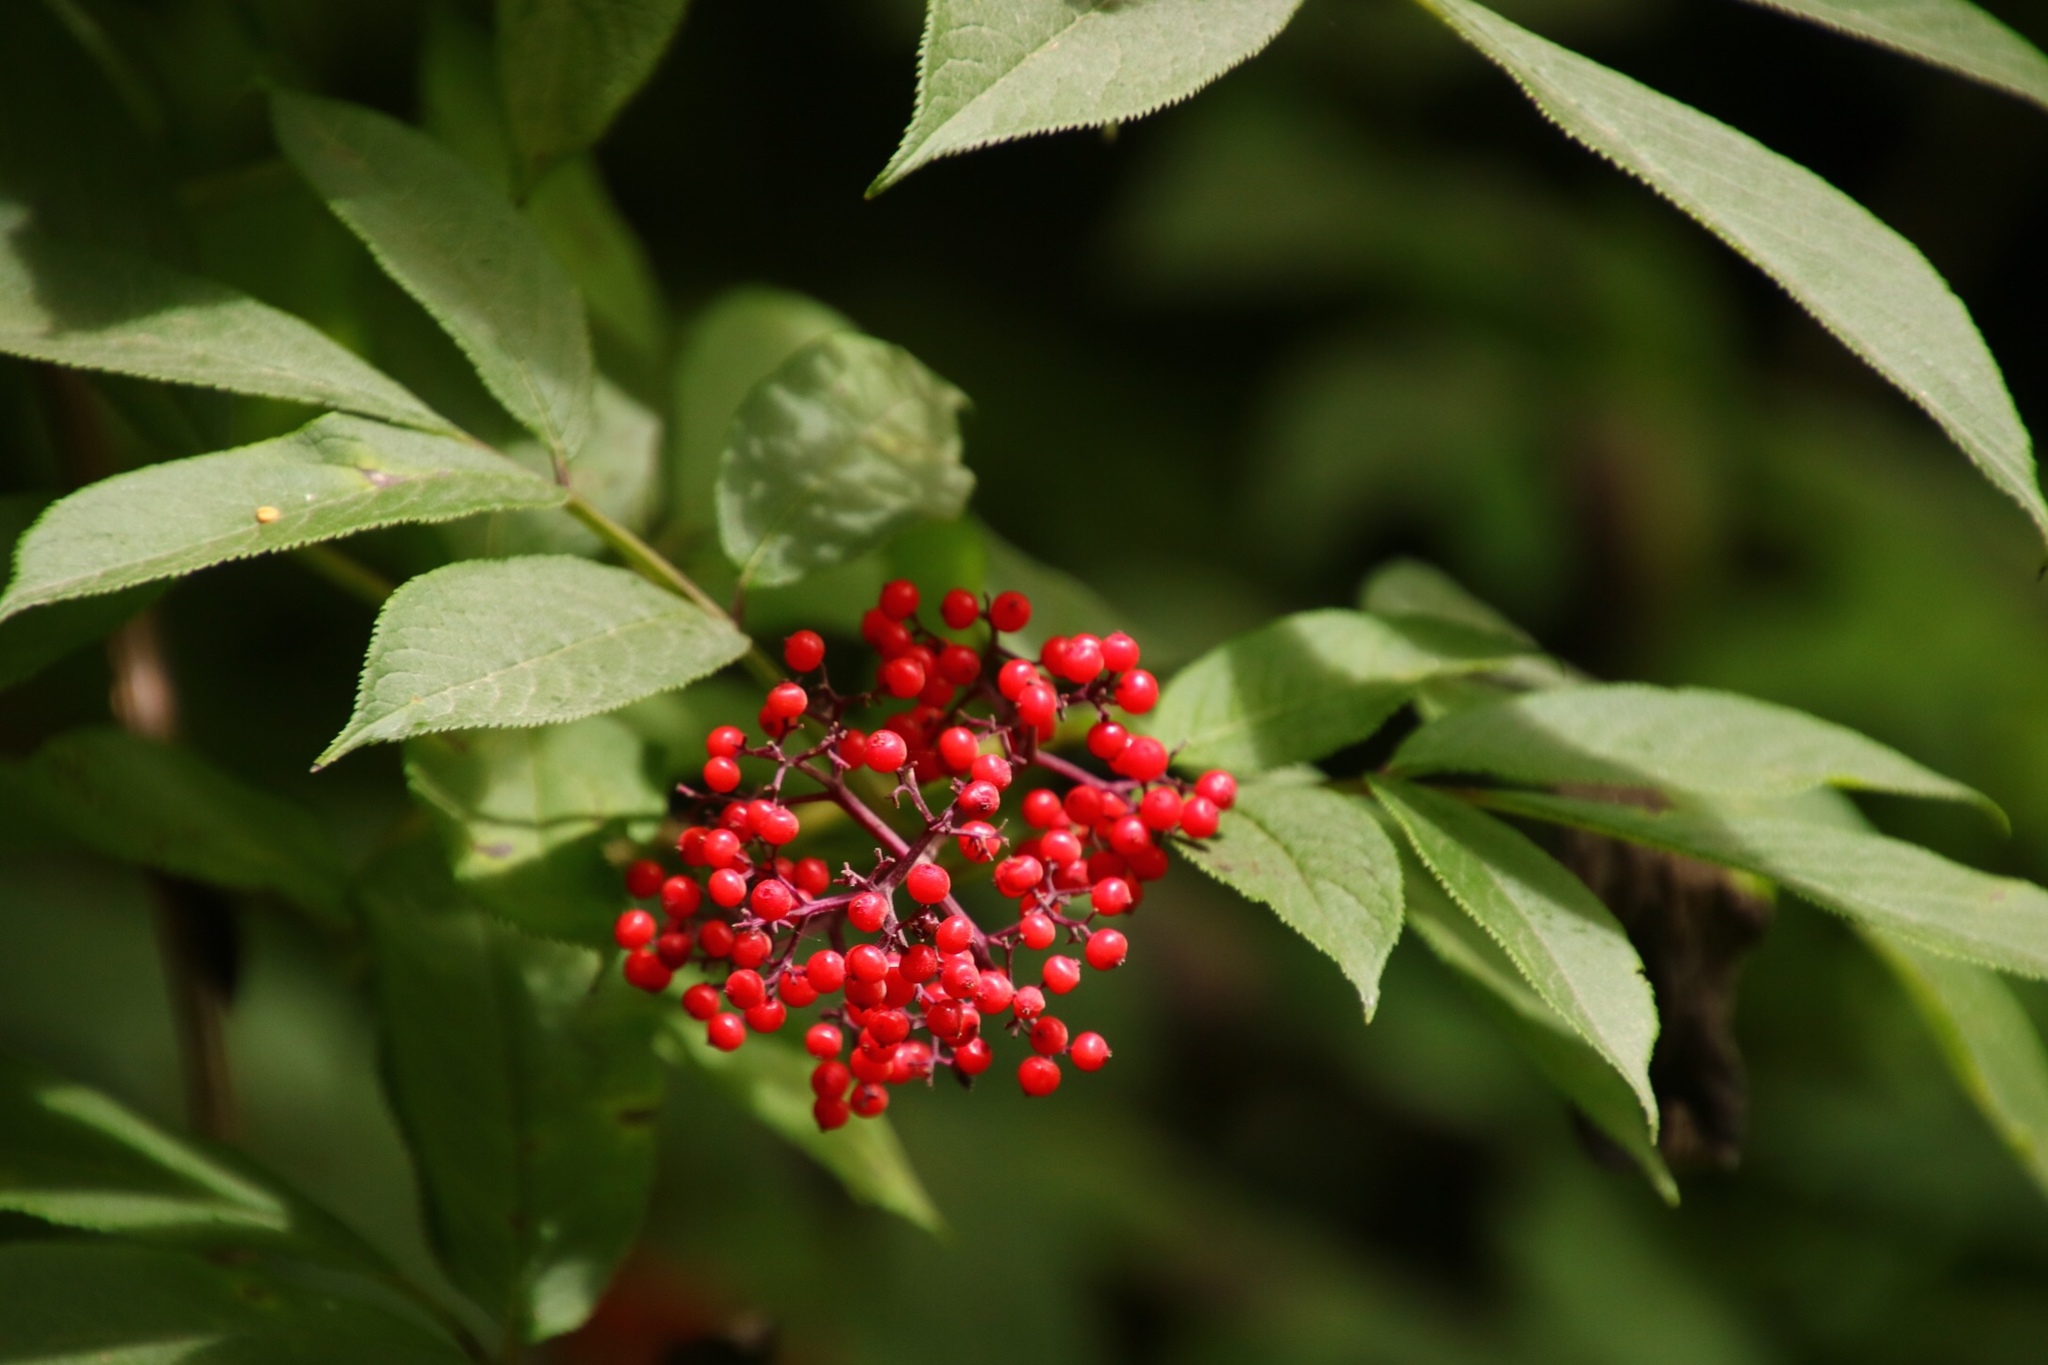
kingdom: Plantae
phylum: Tracheophyta
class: Magnoliopsida
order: Dipsacales
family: Viburnaceae
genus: Sambucus
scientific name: Sambucus racemosa
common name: Red-berried elder
